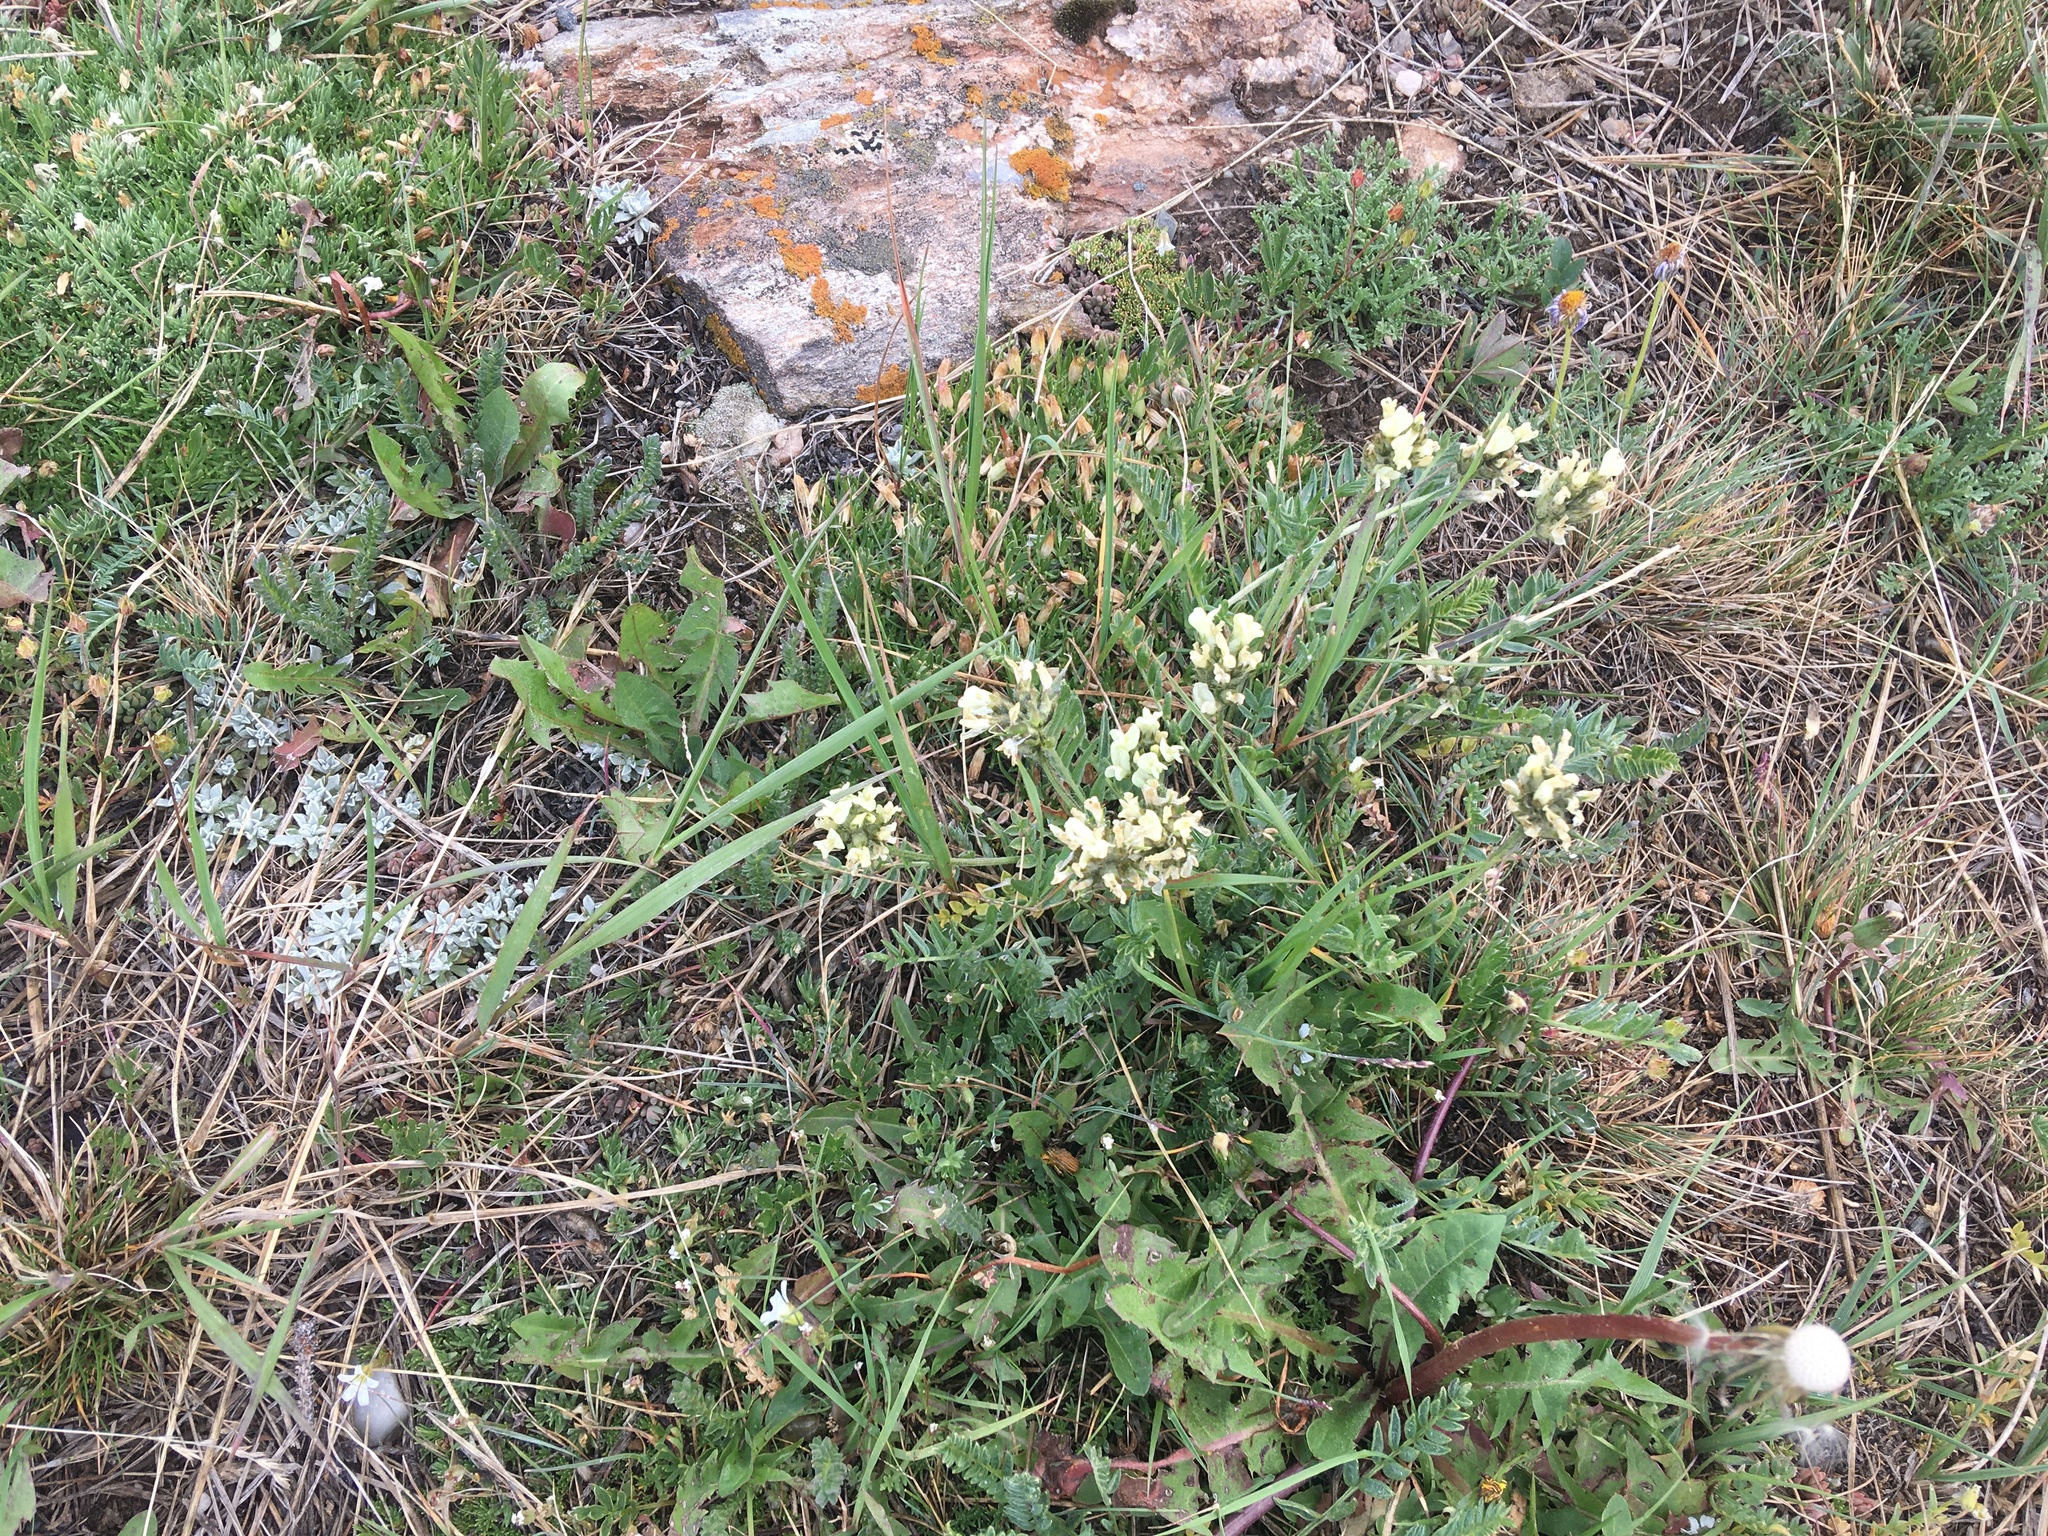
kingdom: Plantae
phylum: Tracheophyta
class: Magnoliopsida
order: Fabales
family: Fabaceae
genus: Oxytropis
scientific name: Oxytropis campestris
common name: Field locoweed
